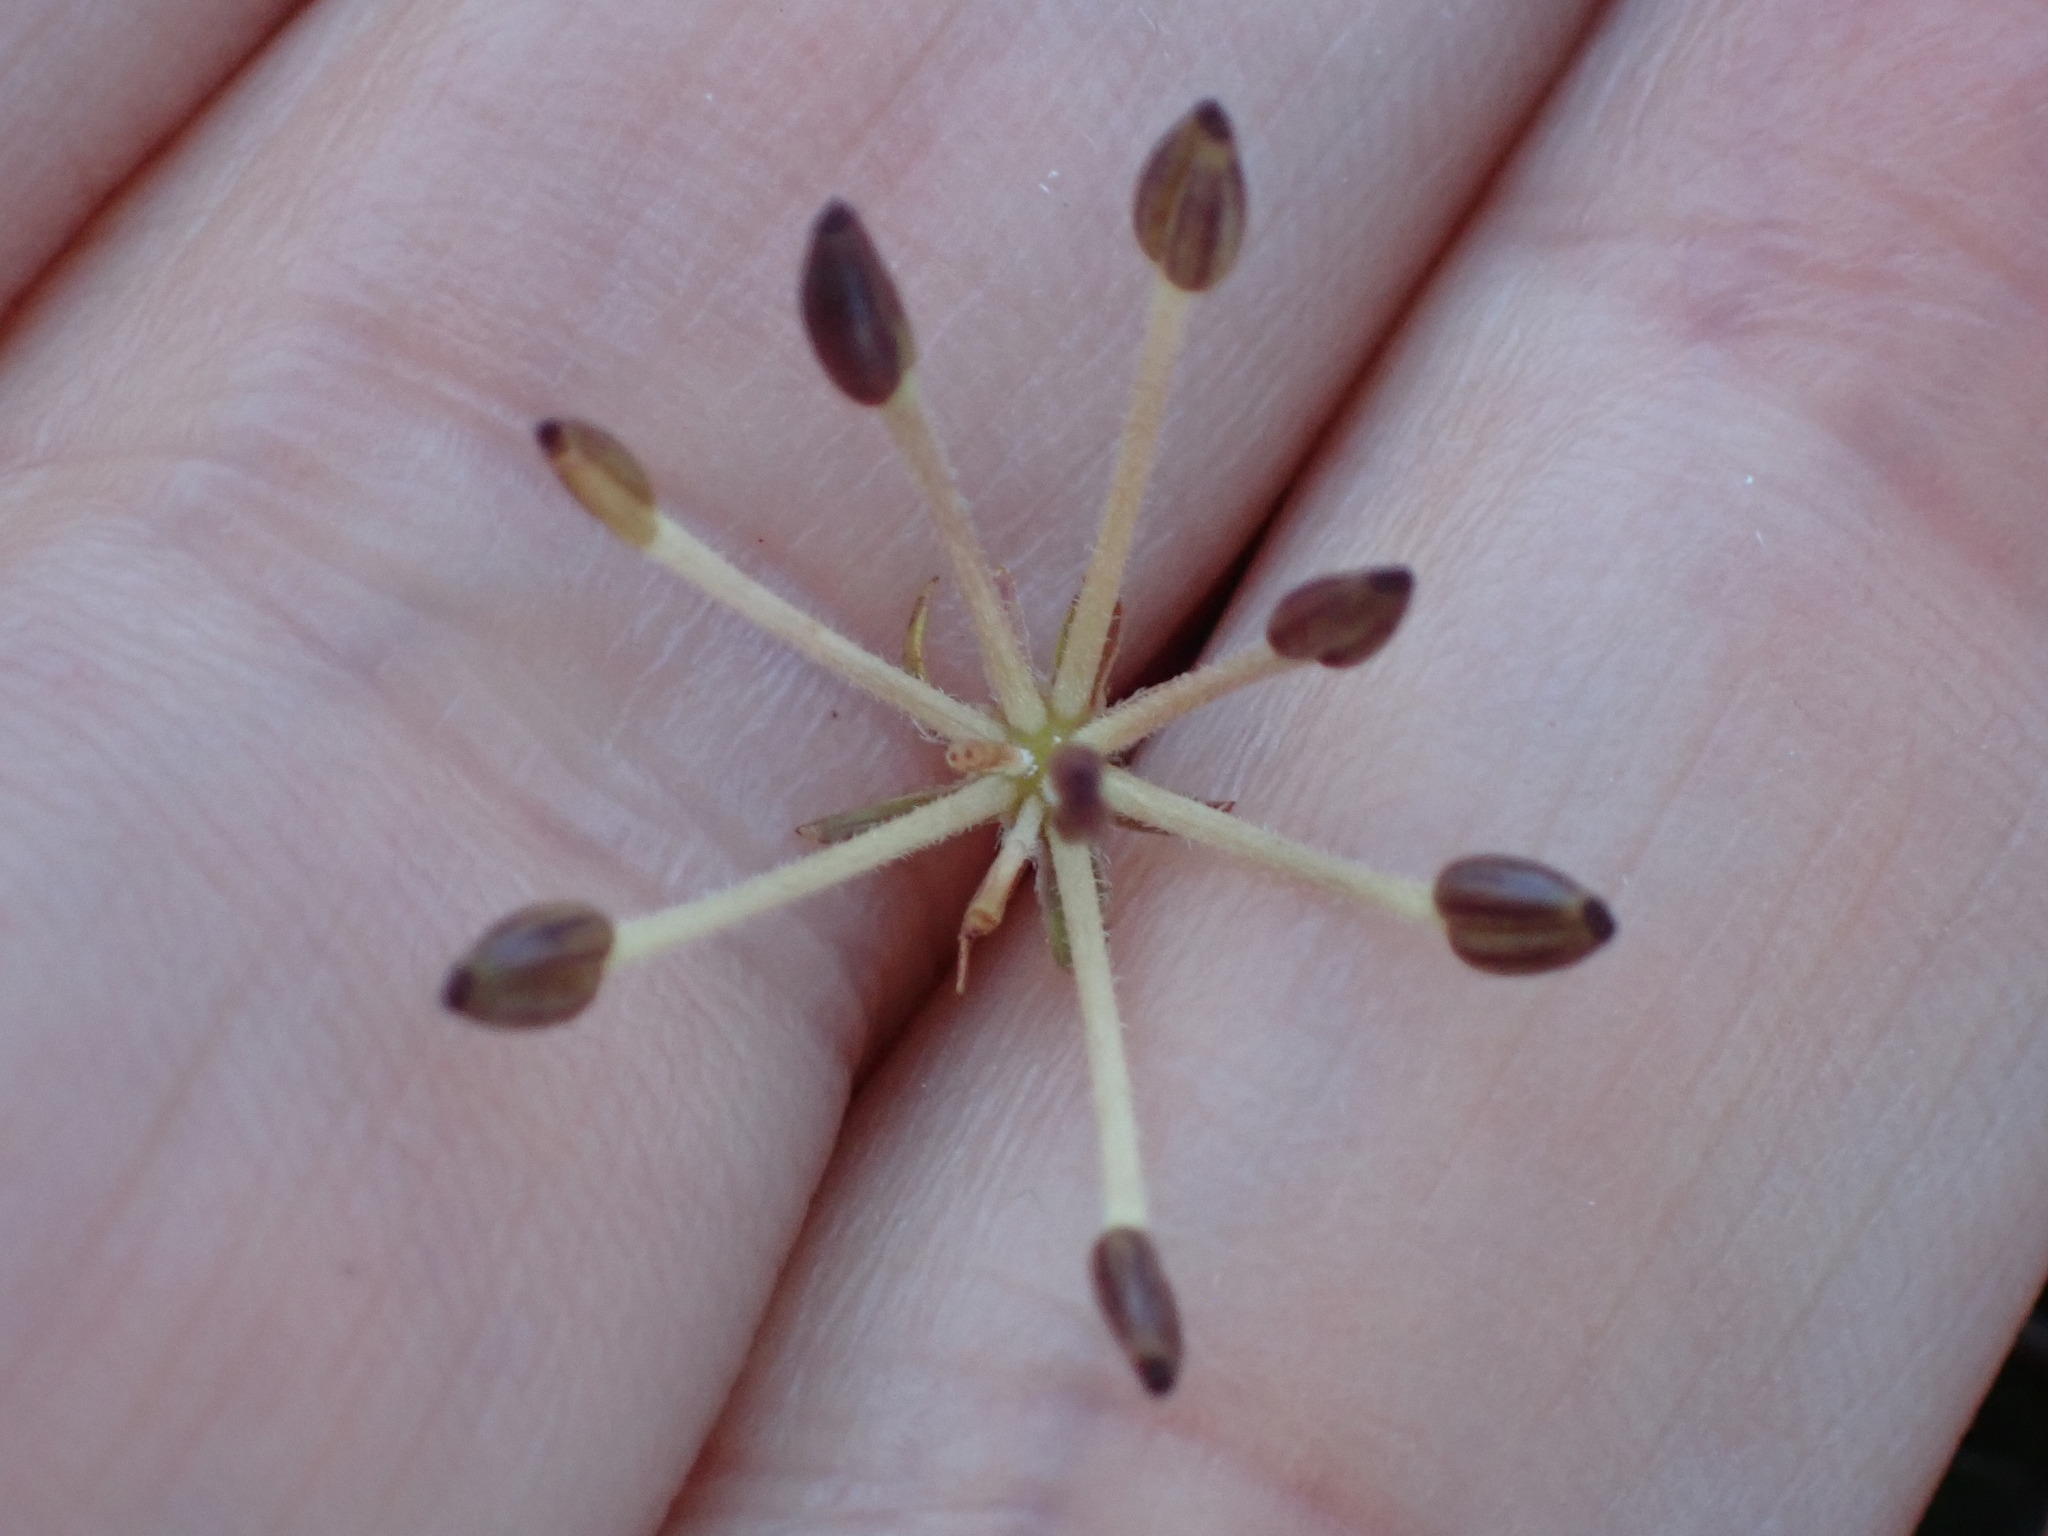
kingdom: Plantae
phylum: Tracheophyta
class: Magnoliopsida
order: Apiales
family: Apiaceae
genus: Chaerophyllum
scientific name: Chaerophyllum colensoi
